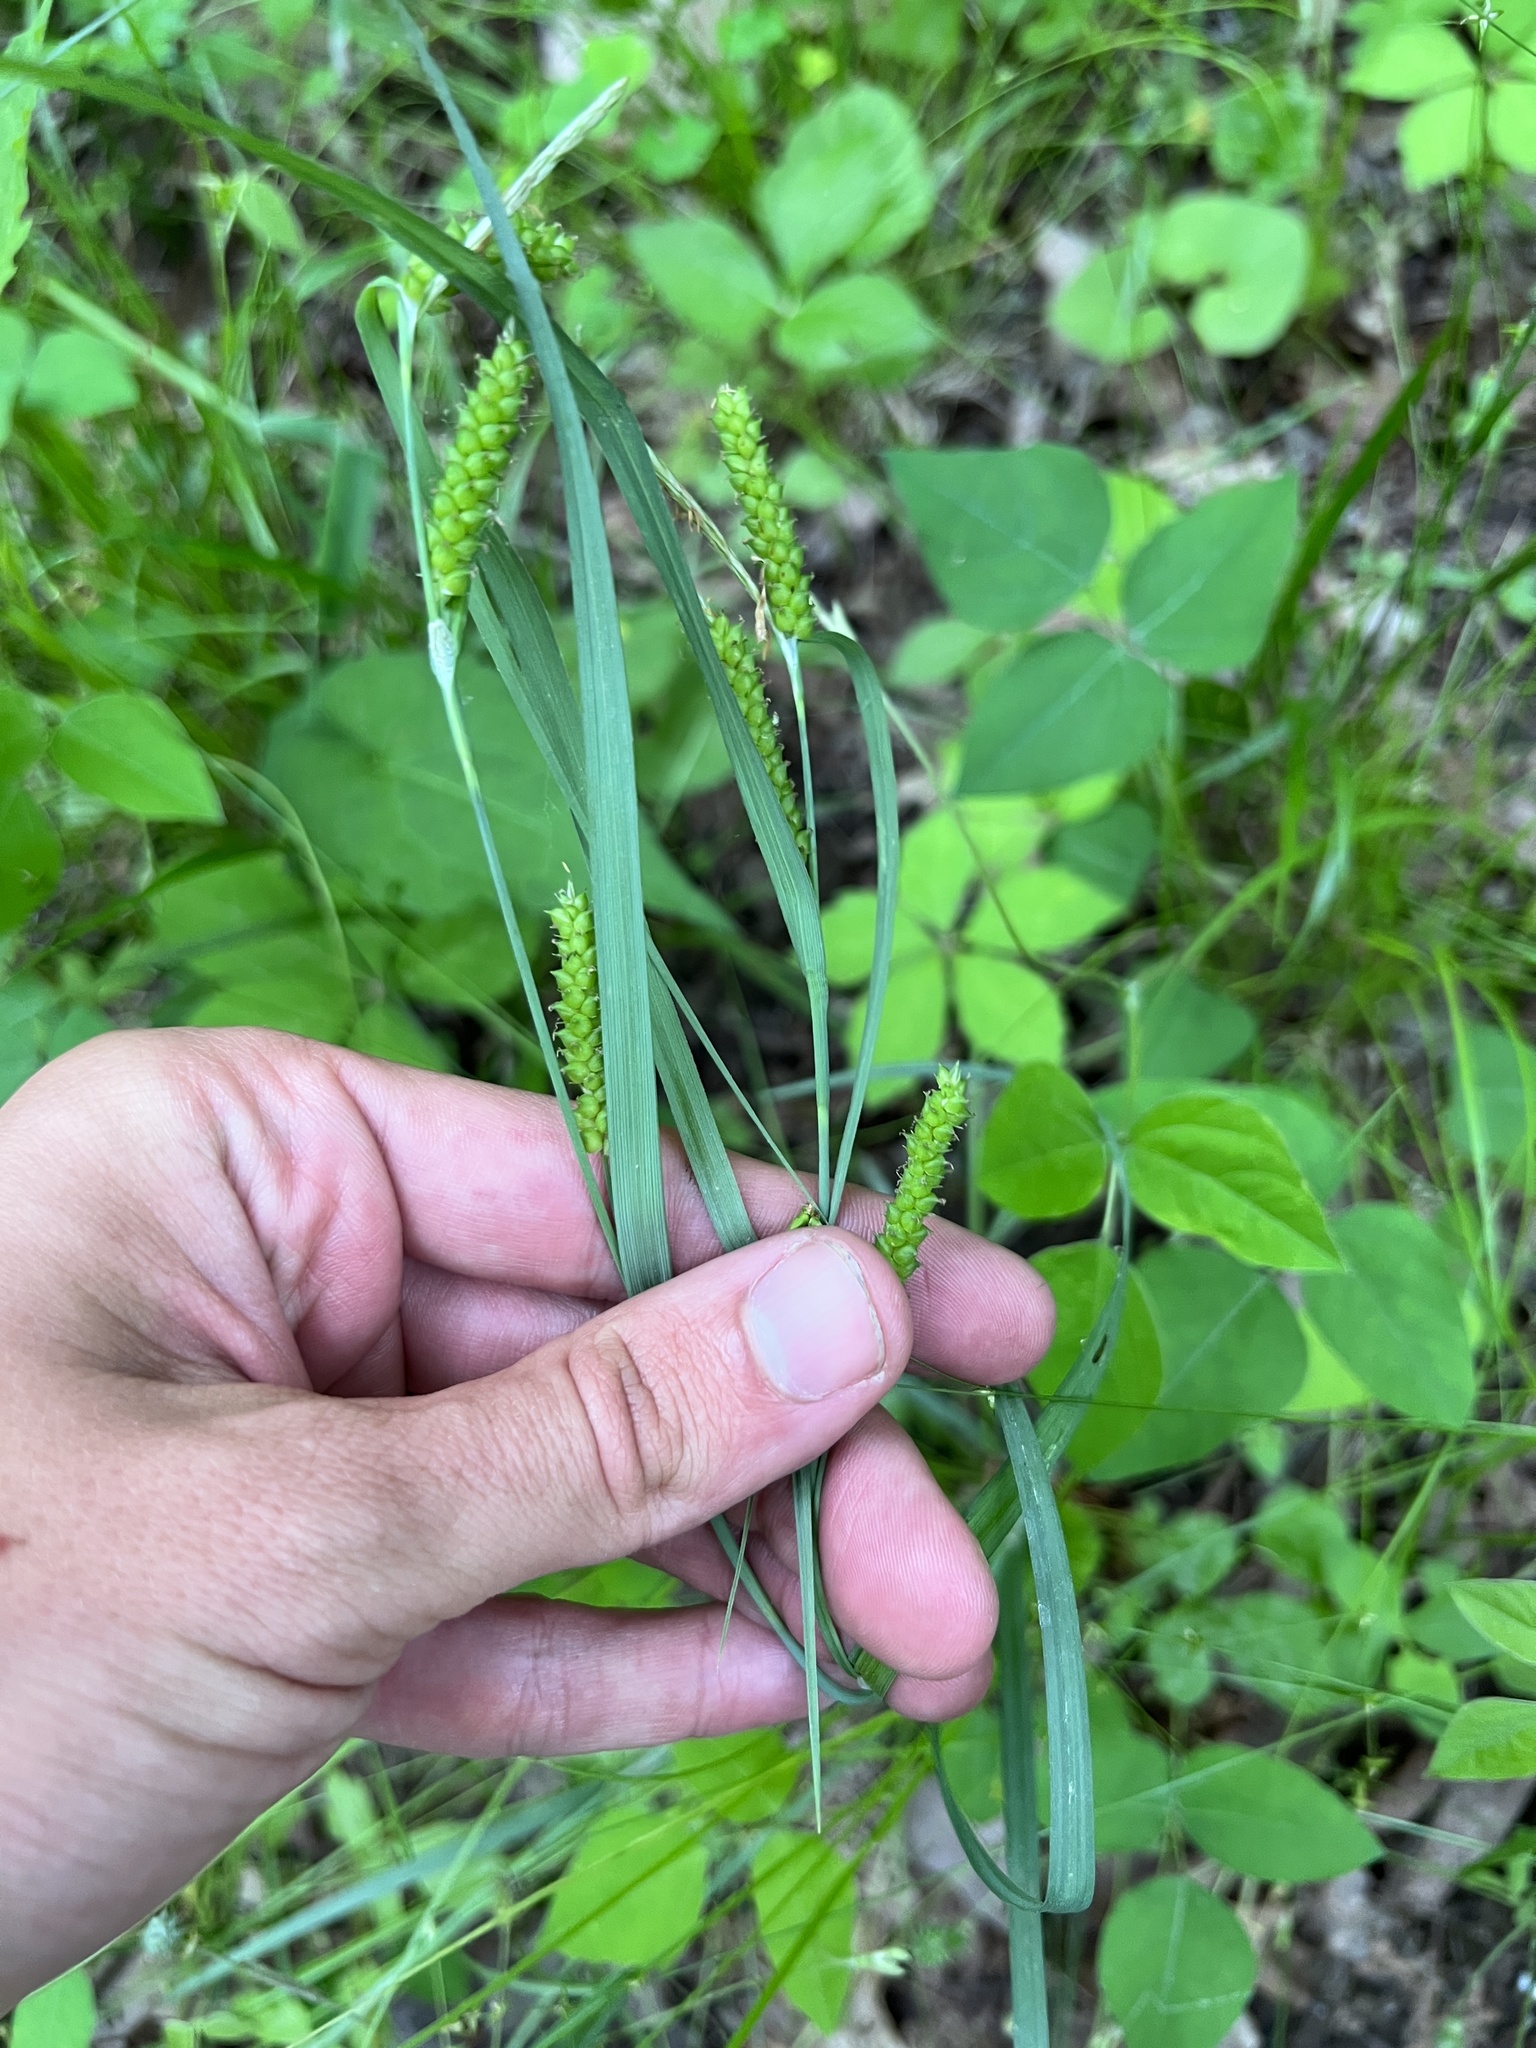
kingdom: Plantae
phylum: Tracheophyta
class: Liliopsida
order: Poales
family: Cyperaceae
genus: Carex
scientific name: Carex granularis
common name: Granular sedge
